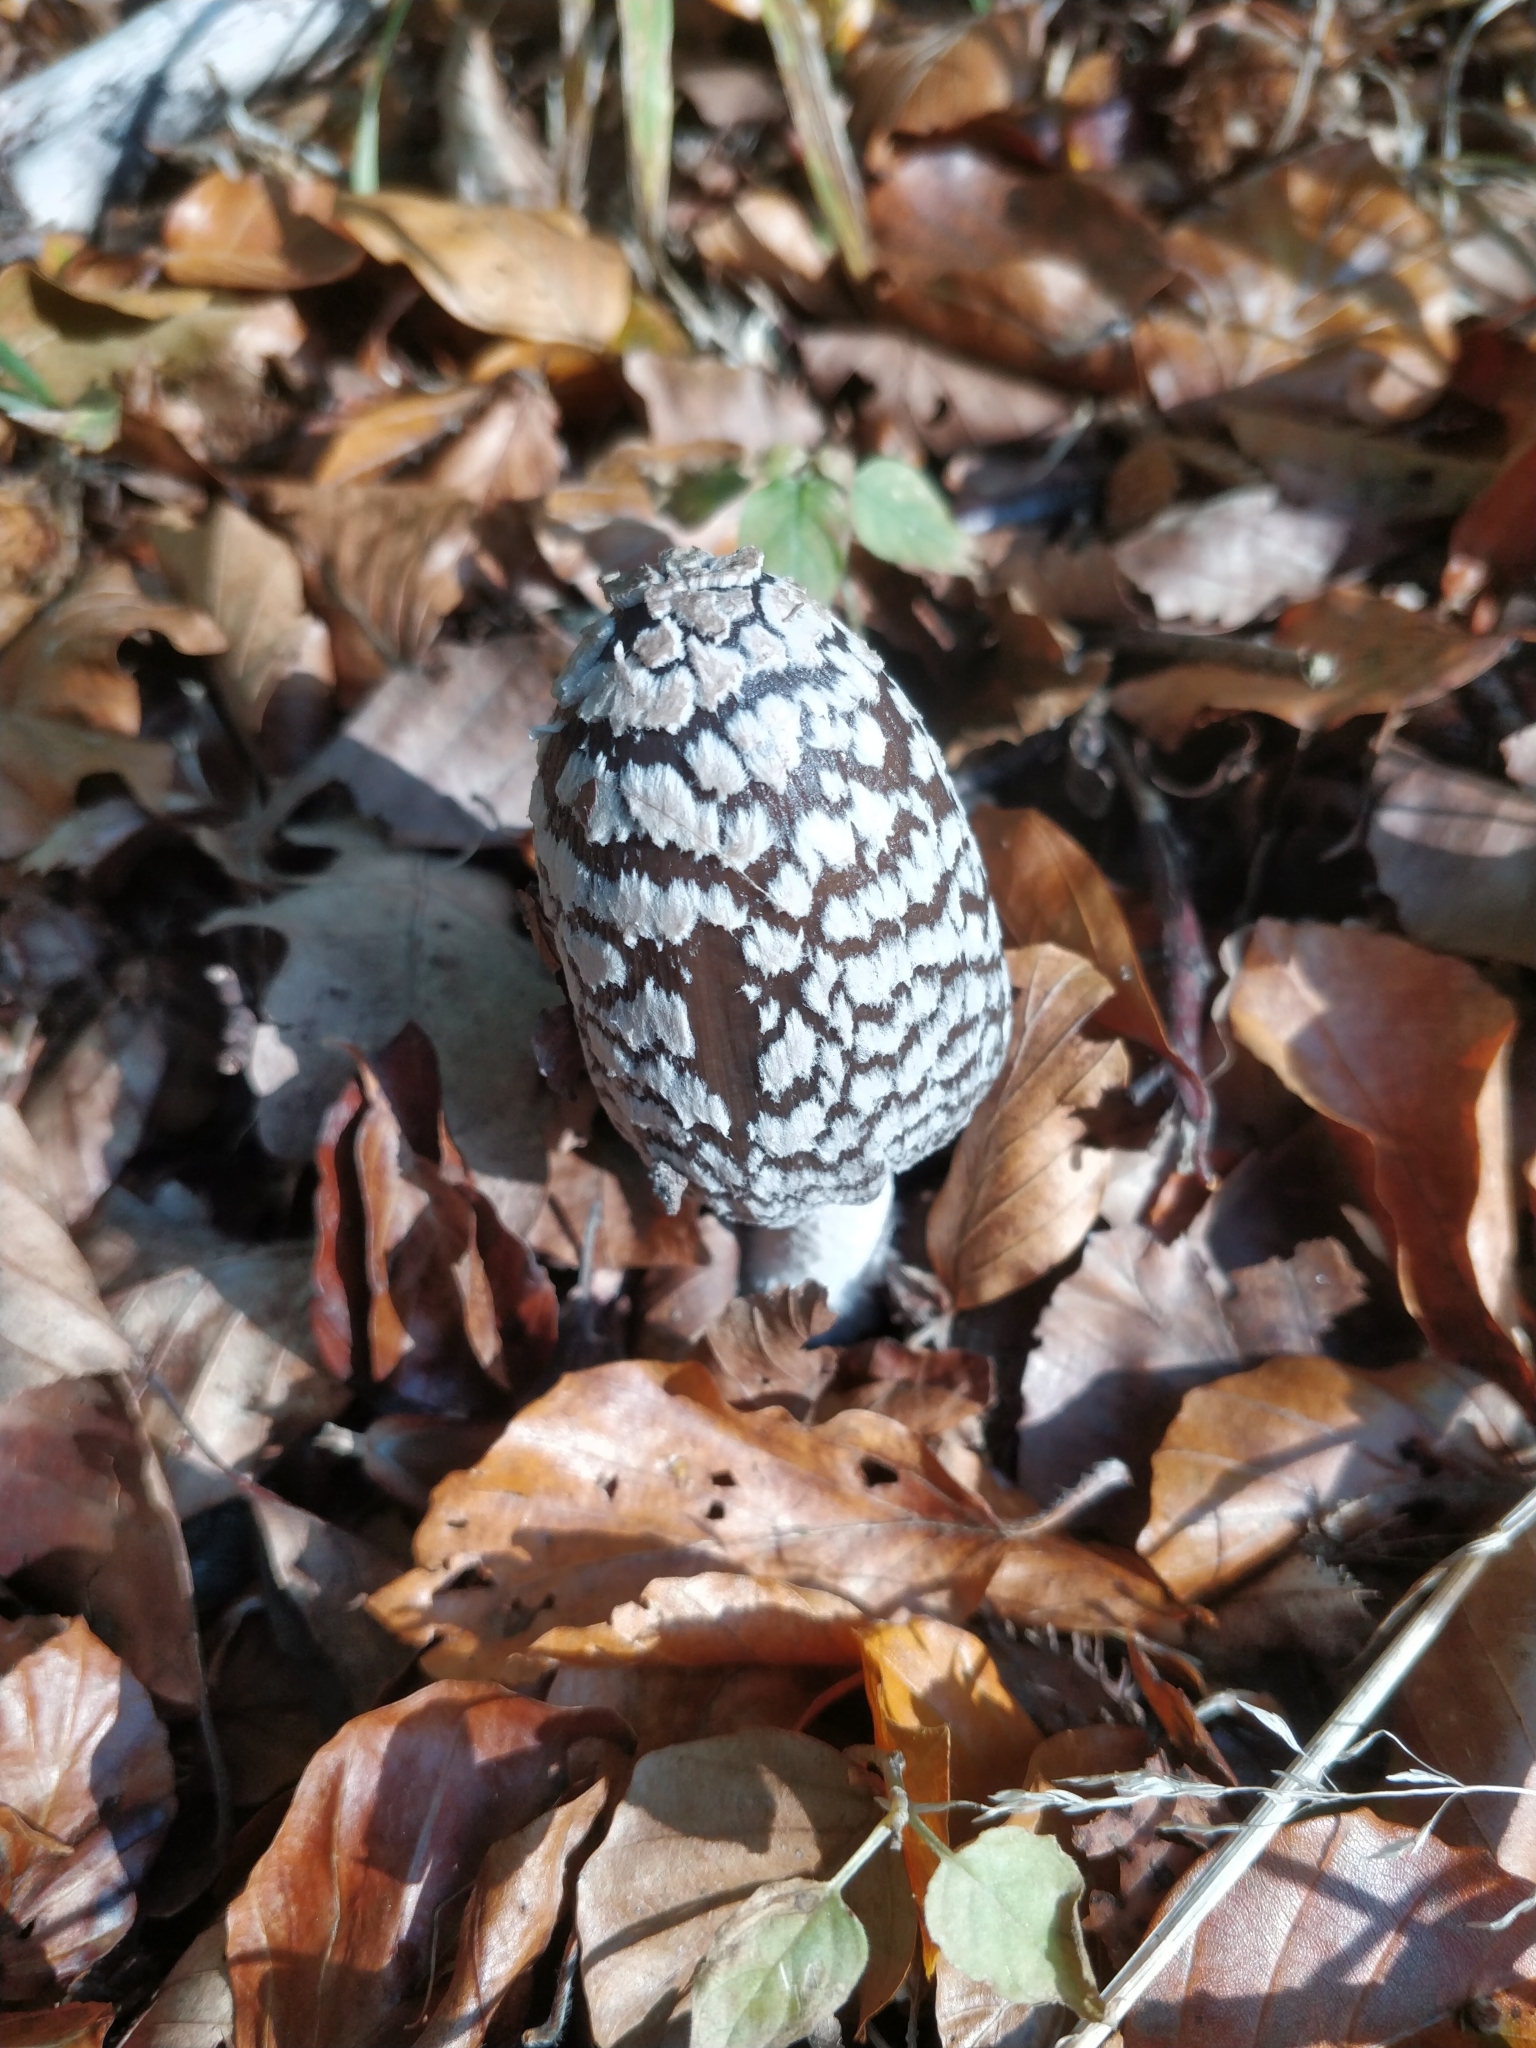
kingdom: Fungi
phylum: Basidiomycota
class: Agaricomycetes
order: Agaricales
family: Psathyrellaceae
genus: Coprinopsis
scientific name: Coprinopsis picacea
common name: Magpie inkcap
